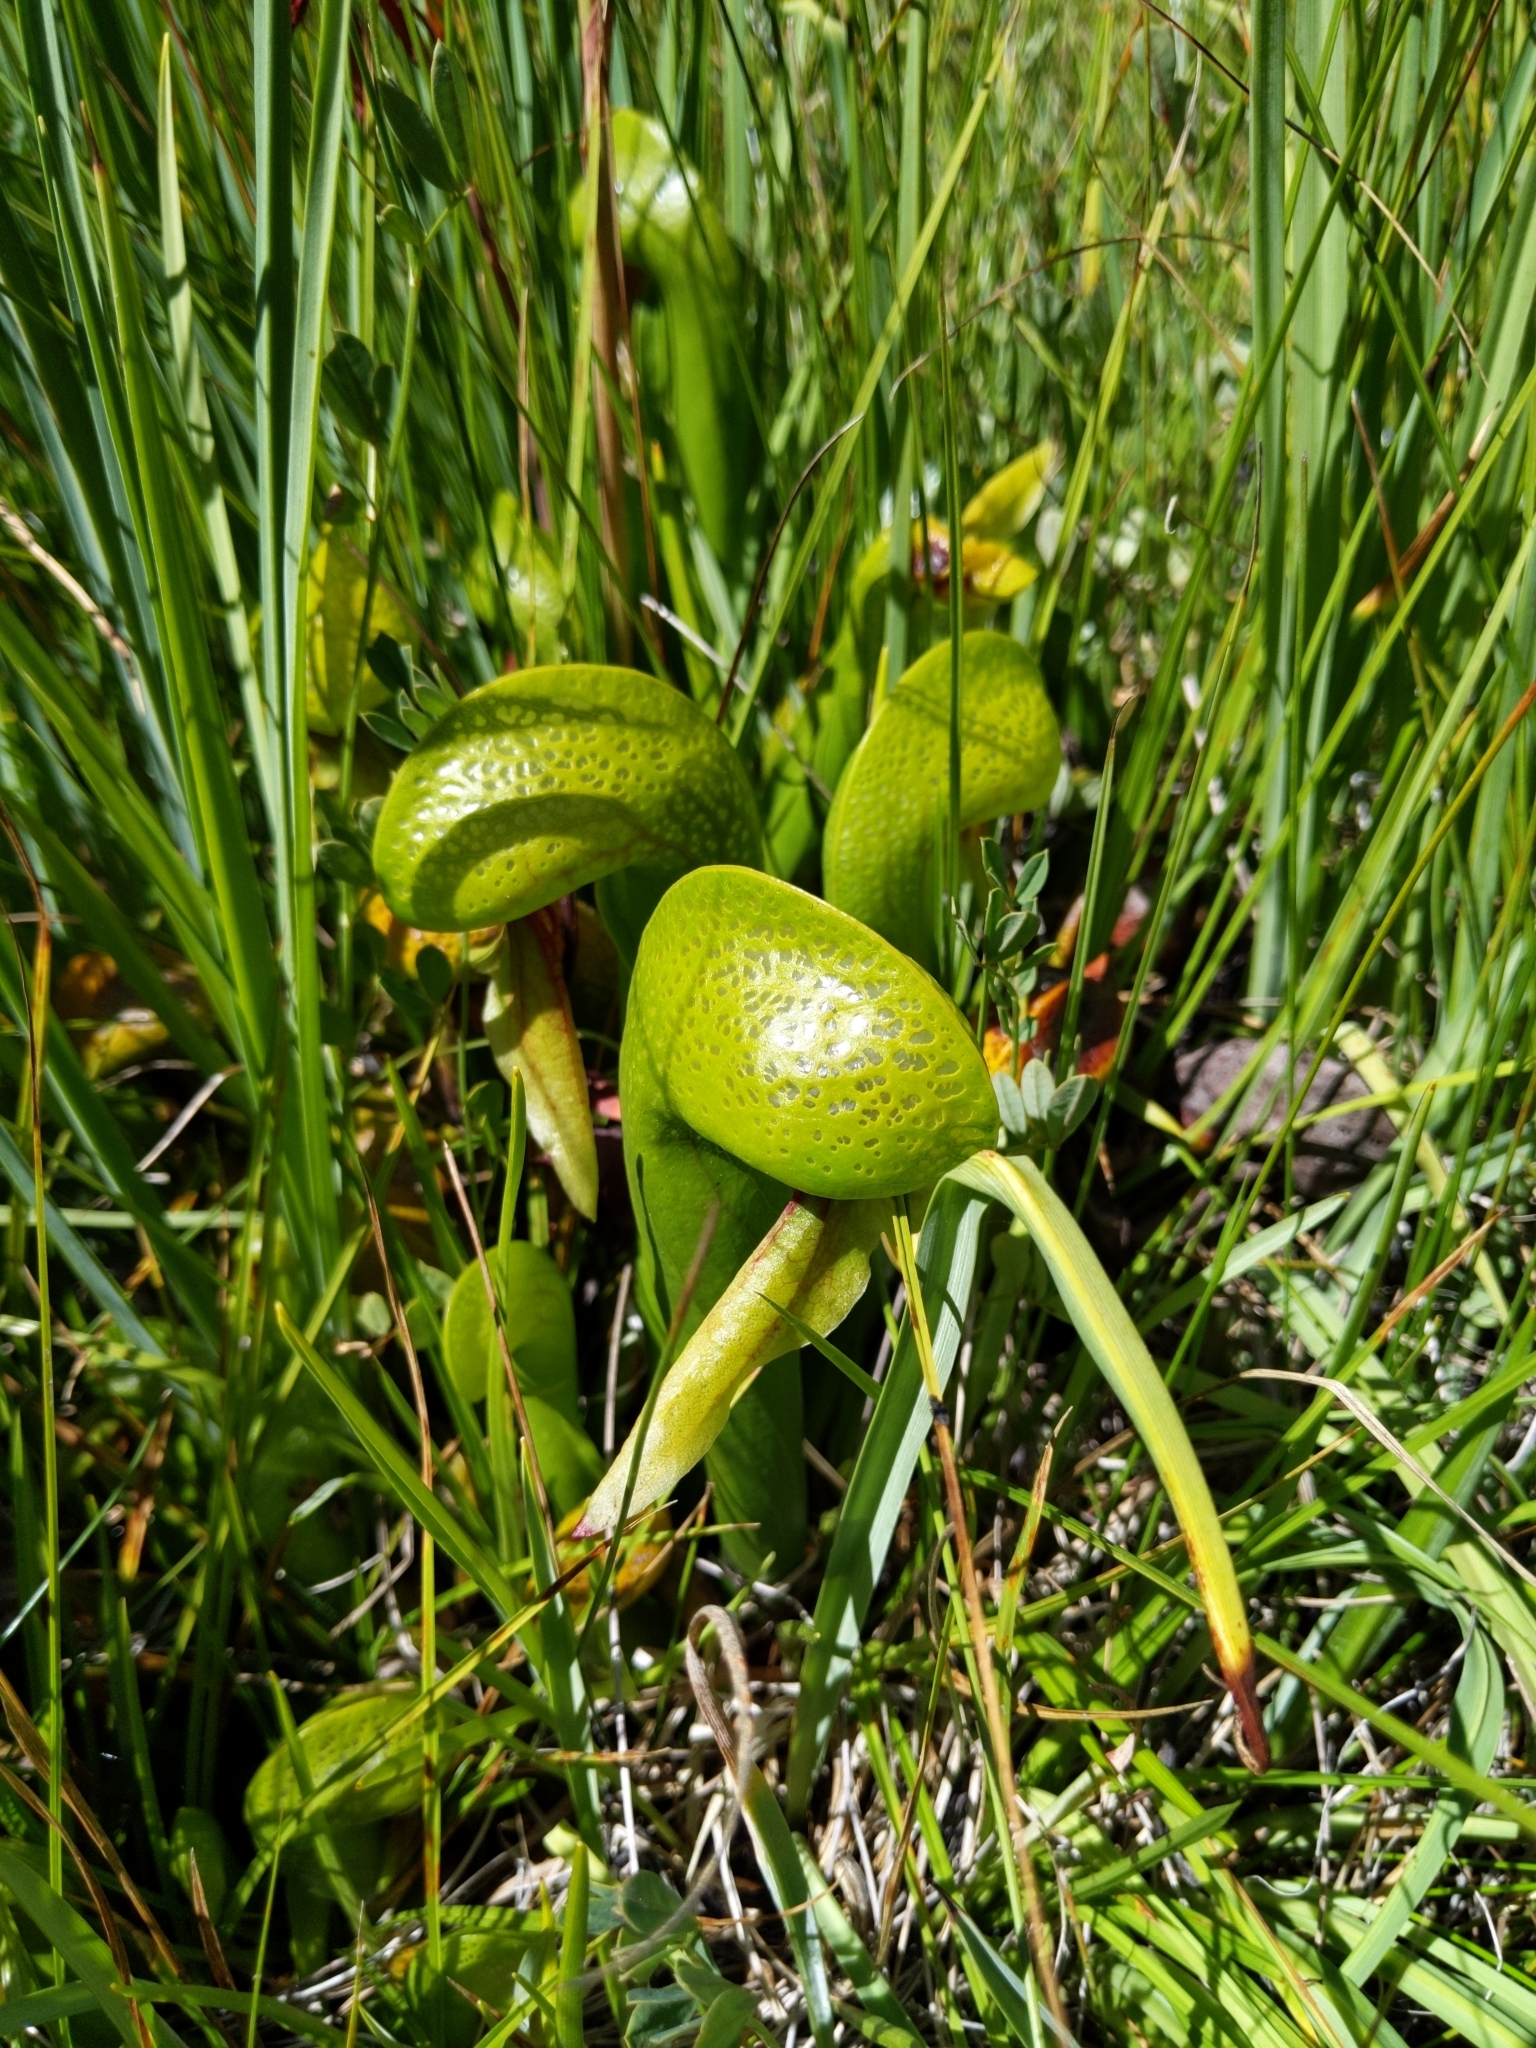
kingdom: Plantae
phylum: Tracheophyta
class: Magnoliopsida
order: Ericales
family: Sarraceniaceae
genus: Darlingtonia
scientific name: Darlingtonia californica
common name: California pitcher plant
